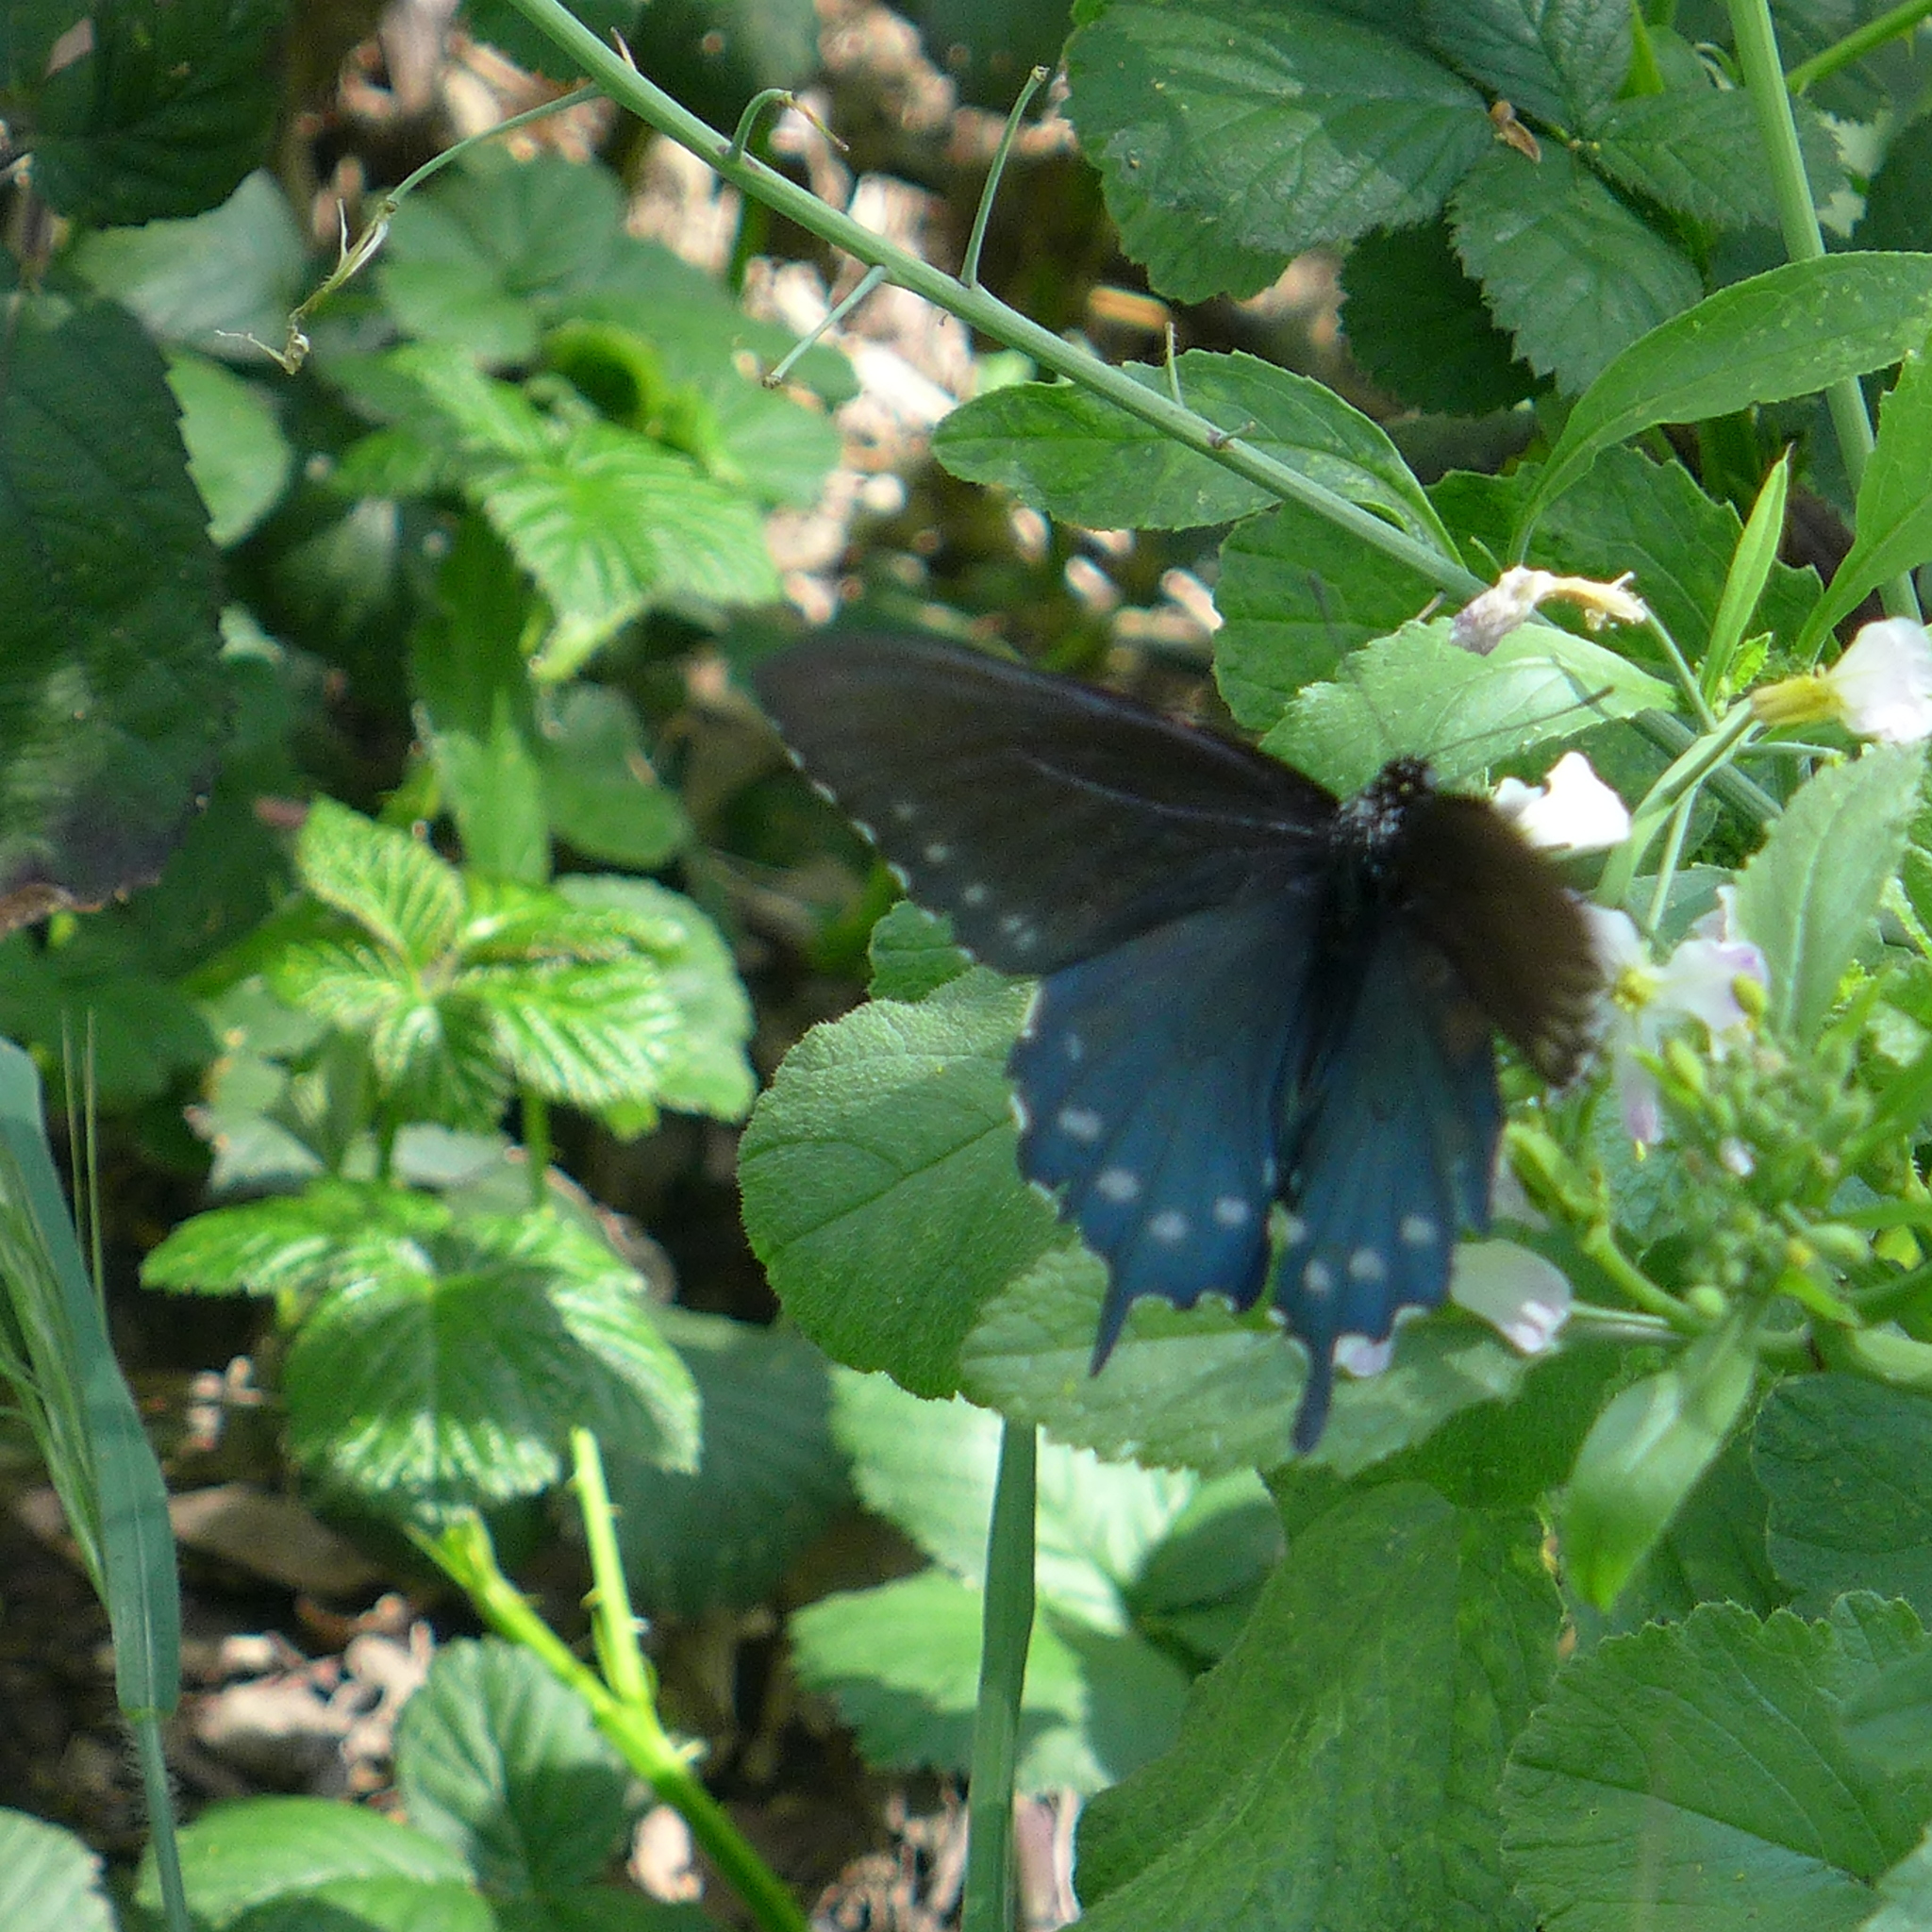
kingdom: Animalia
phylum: Arthropoda
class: Insecta
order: Lepidoptera
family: Papilionidae
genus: Battus
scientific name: Battus philenor
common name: Pipevine swallowtail
